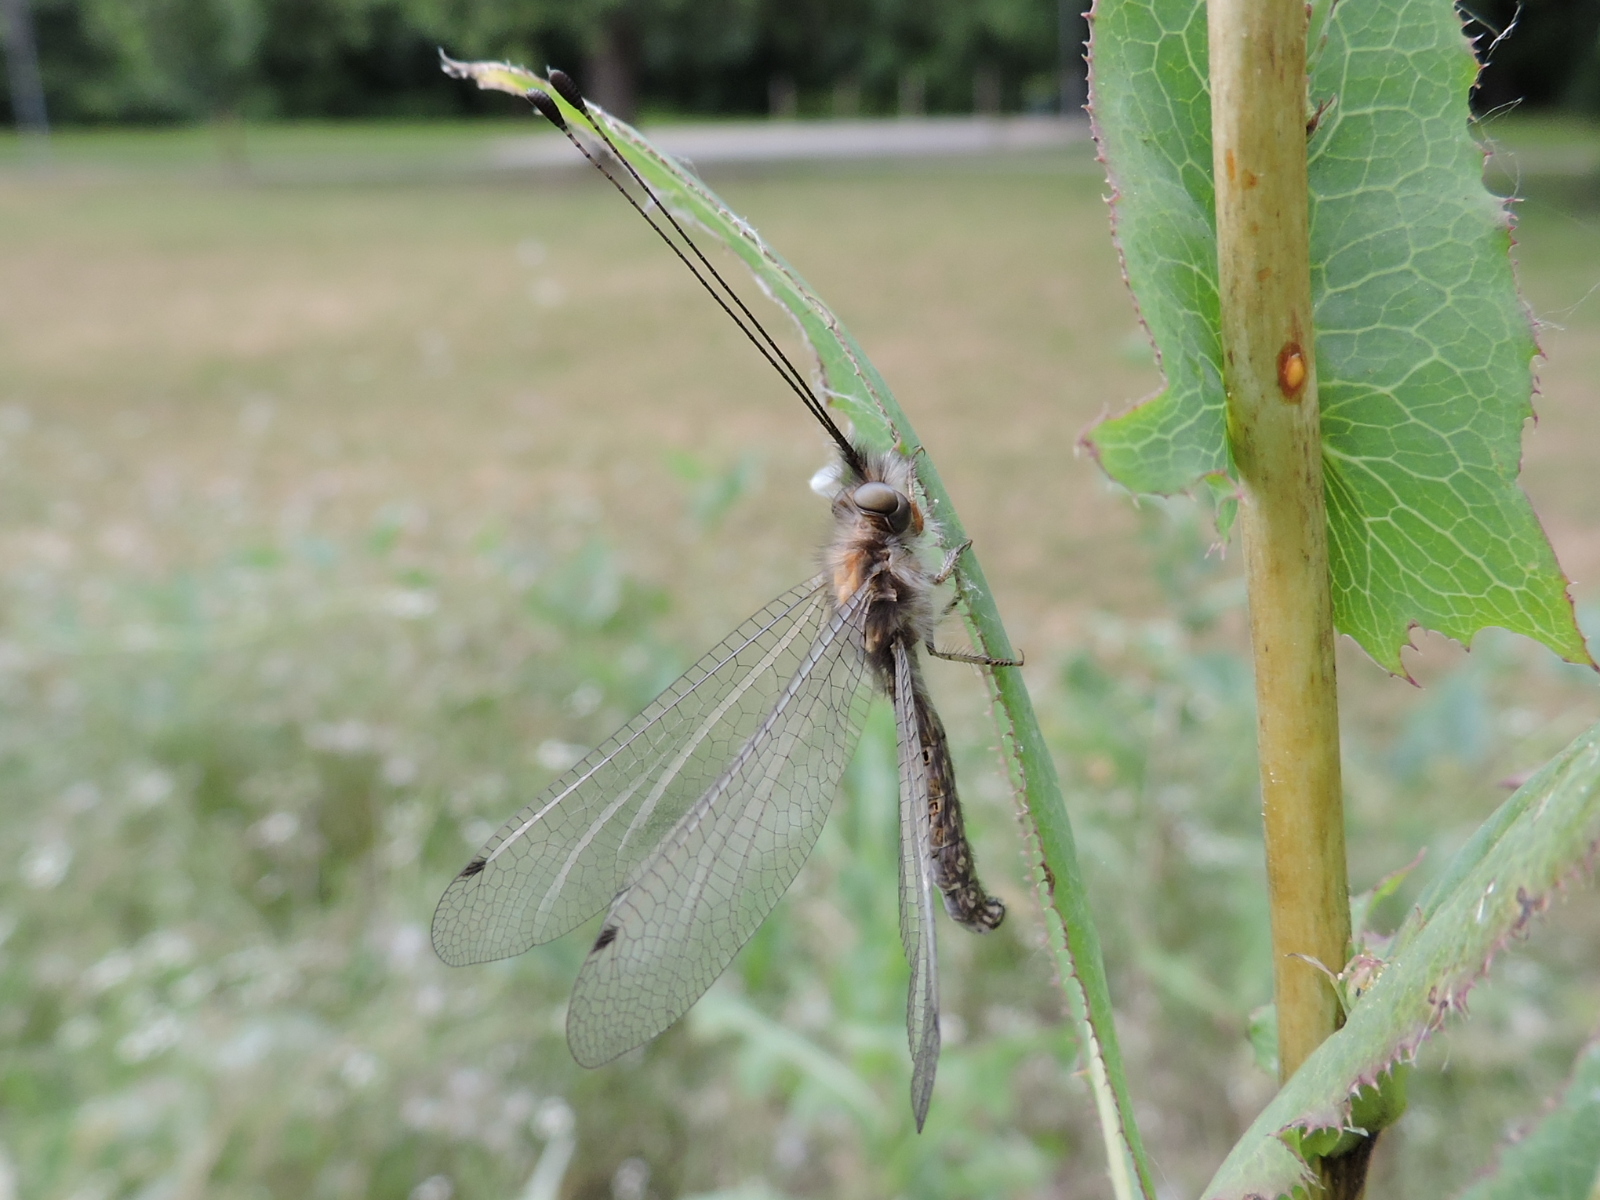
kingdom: Animalia
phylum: Arthropoda
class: Insecta
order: Neuroptera
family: Ascalaphidae
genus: Ululodes
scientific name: Ululodes macleayanus
